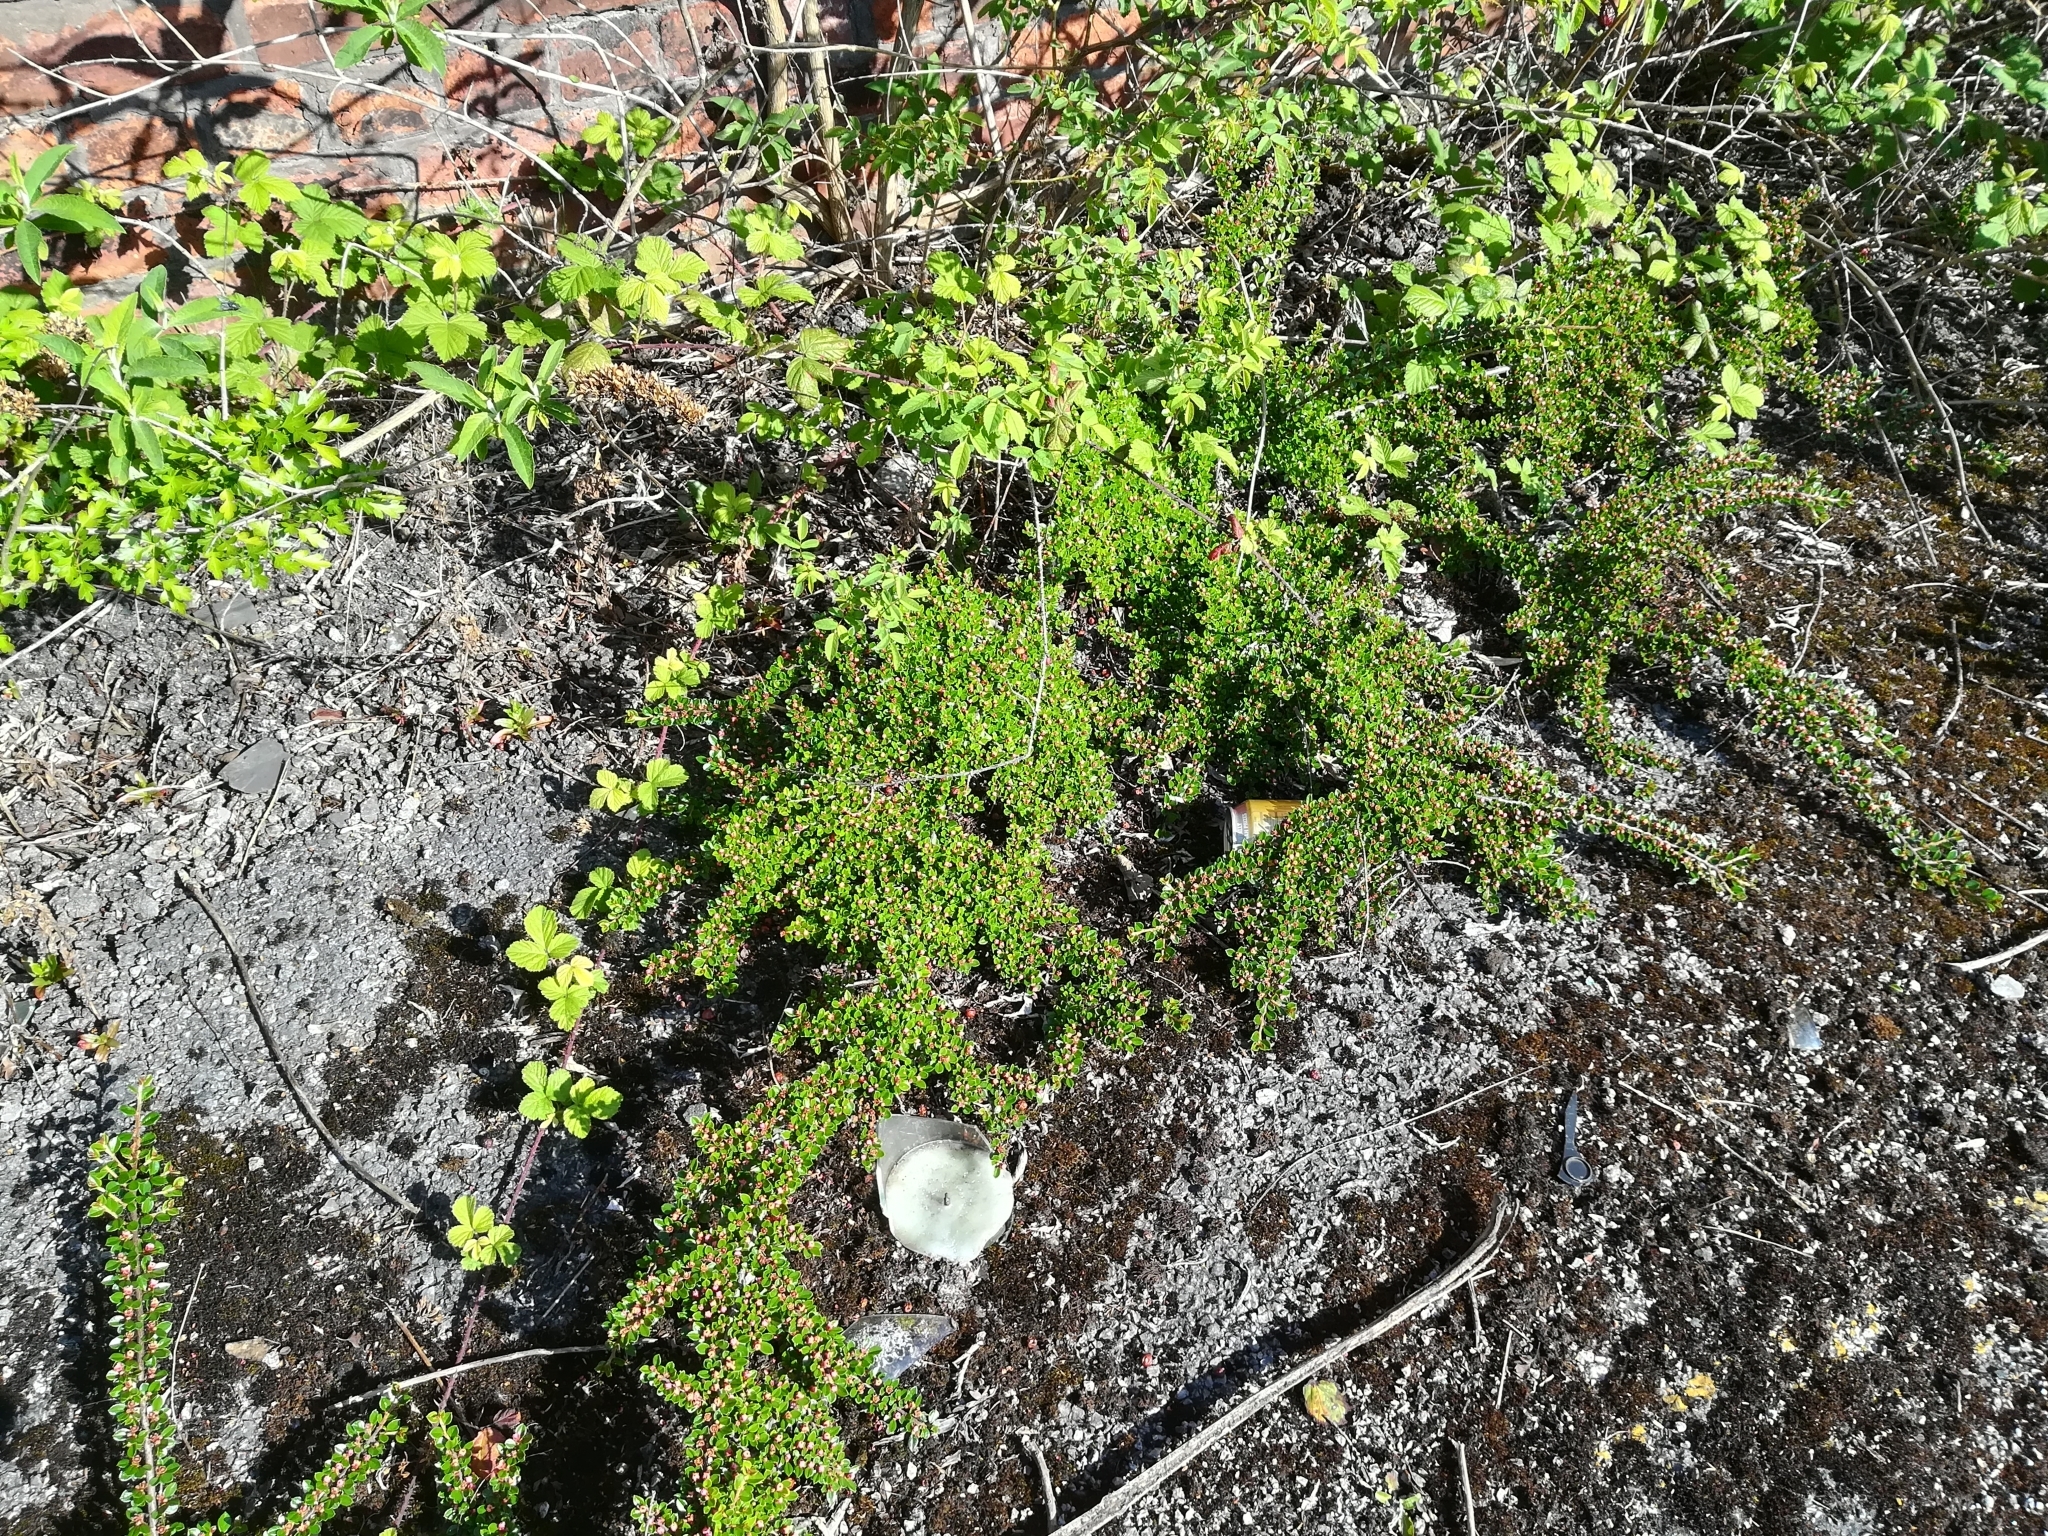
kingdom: Plantae
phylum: Tracheophyta
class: Magnoliopsida
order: Rosales
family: Rosaceae
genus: Cotoneaster
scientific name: Cotoneaster horizontalis
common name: Wall cotoneaster
